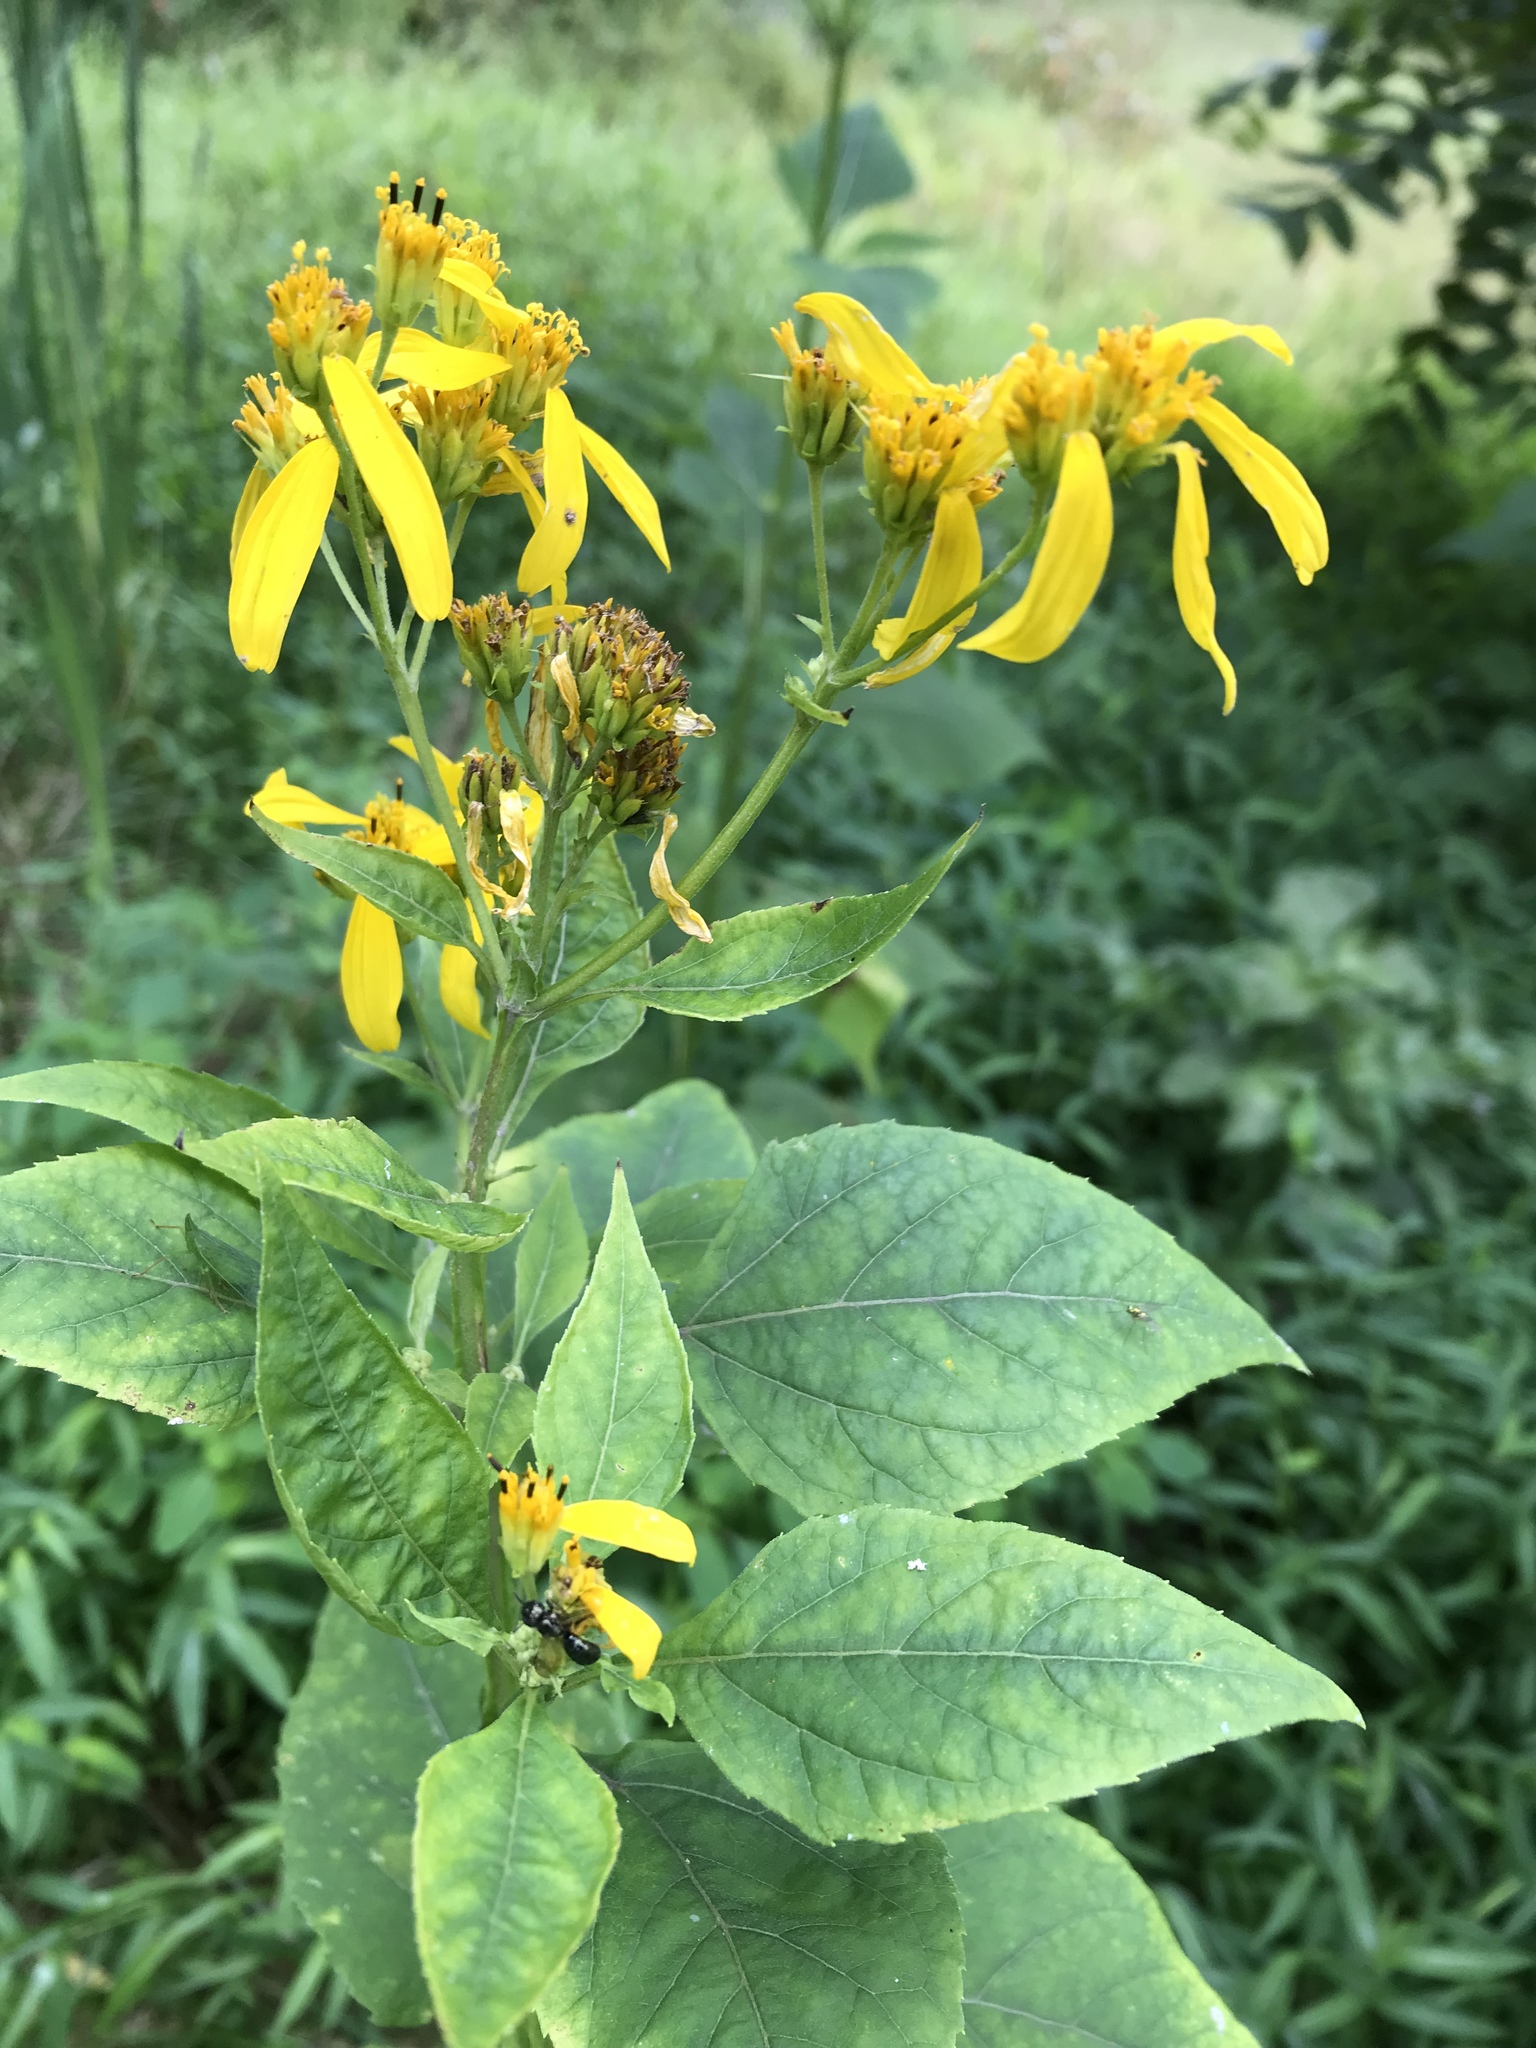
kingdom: Plantae
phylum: Tracheophyta
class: Magnoliopsida
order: Asterales
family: Asteraceae
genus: Verbesina
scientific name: Verbesina occidentalis
